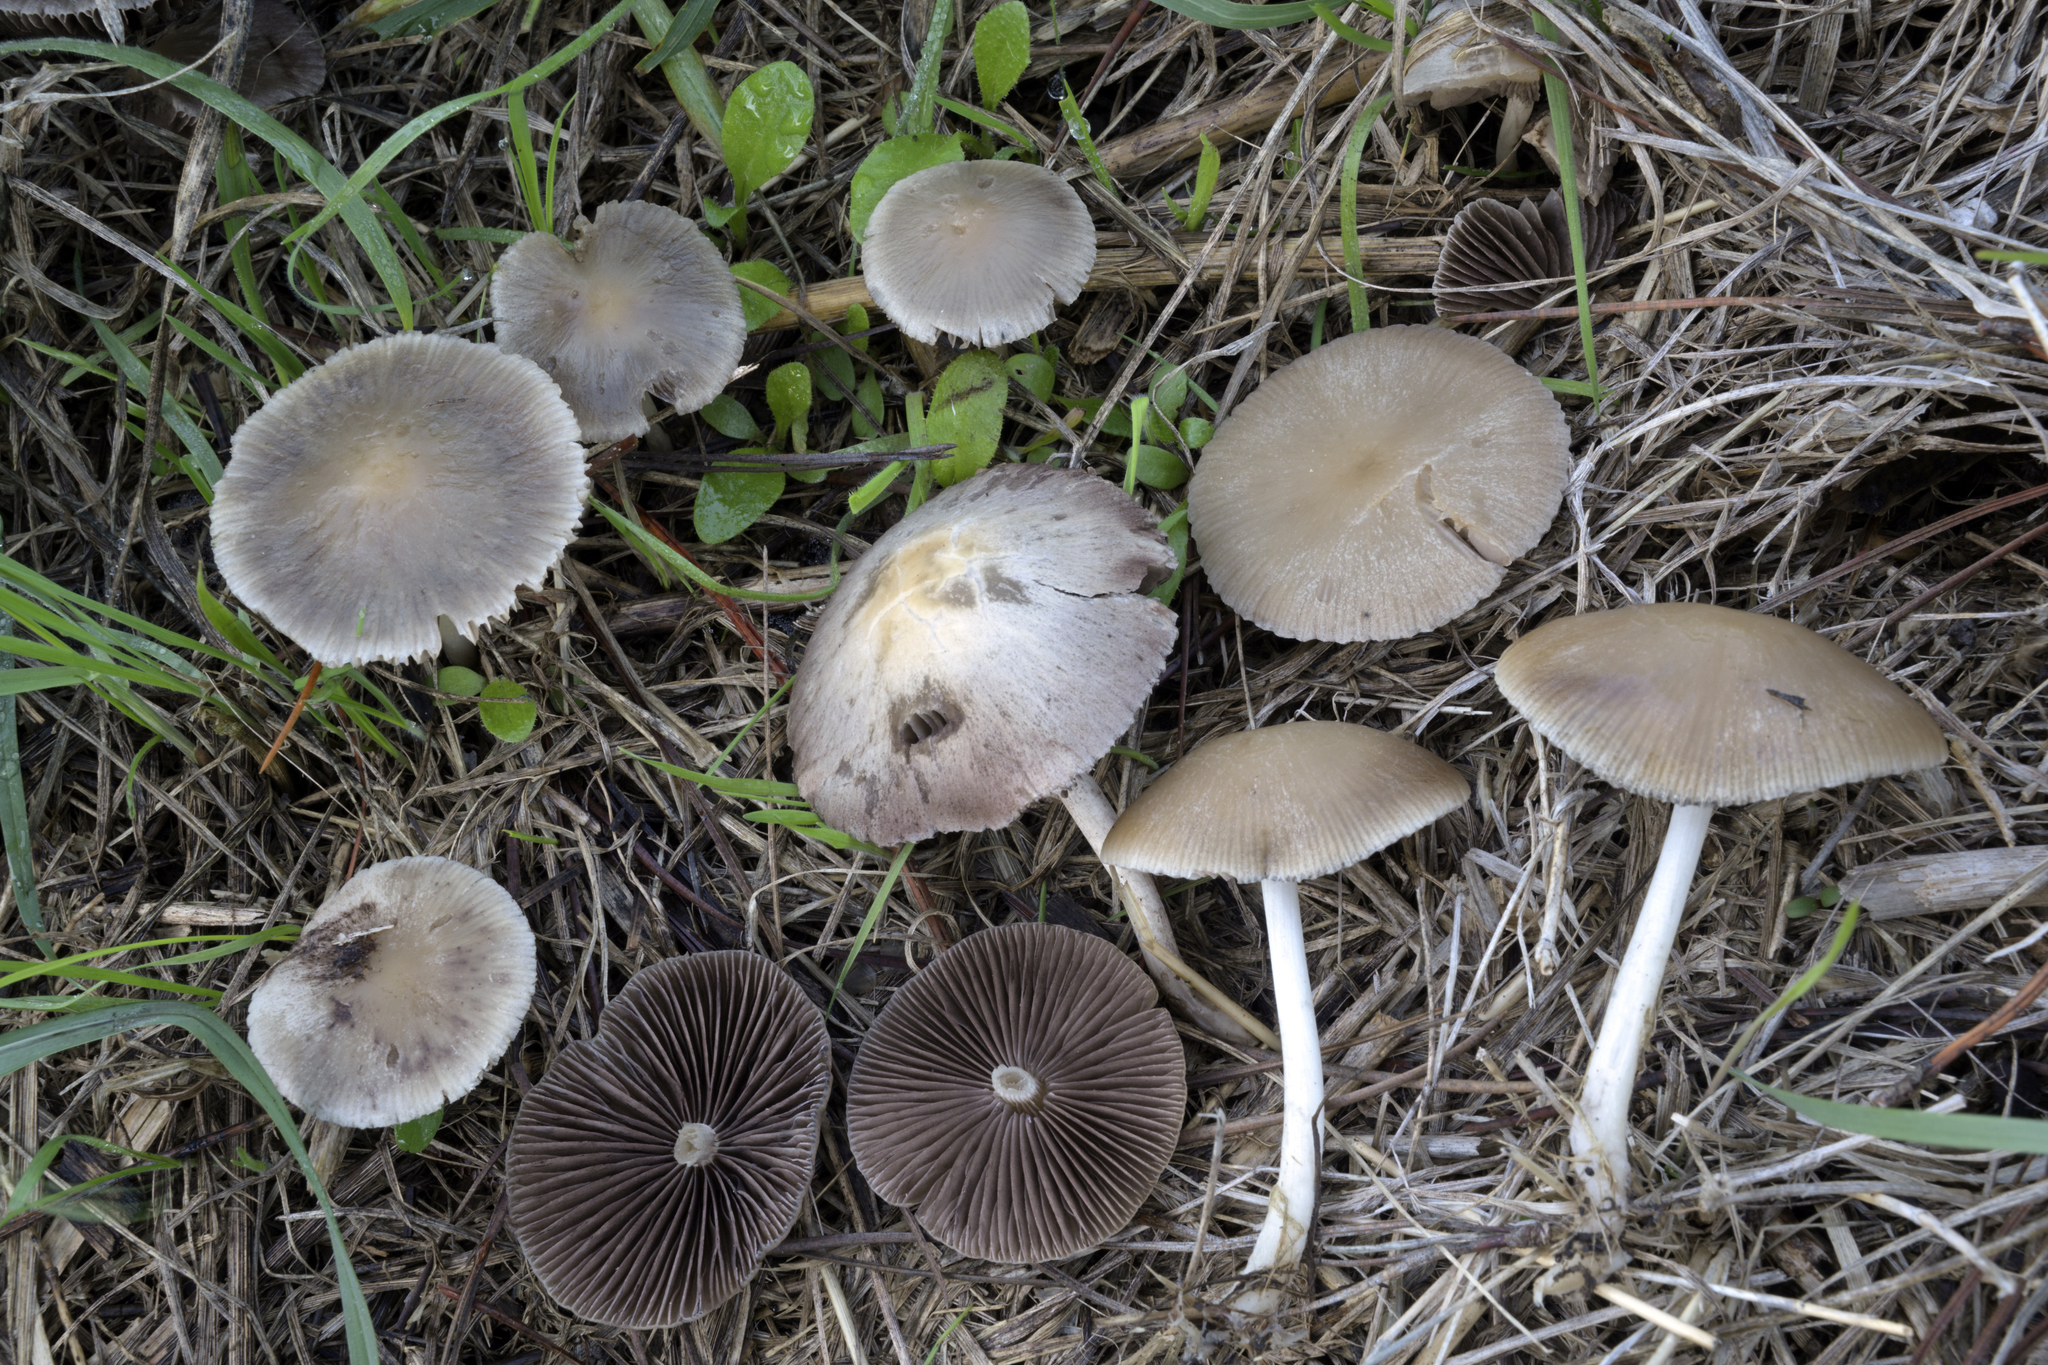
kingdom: Fungi
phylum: Basidiomycota
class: Agaricomycetes
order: Agaricales
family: Psathyrellaceae
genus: Psathyrella
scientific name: Psathyrella fatua
